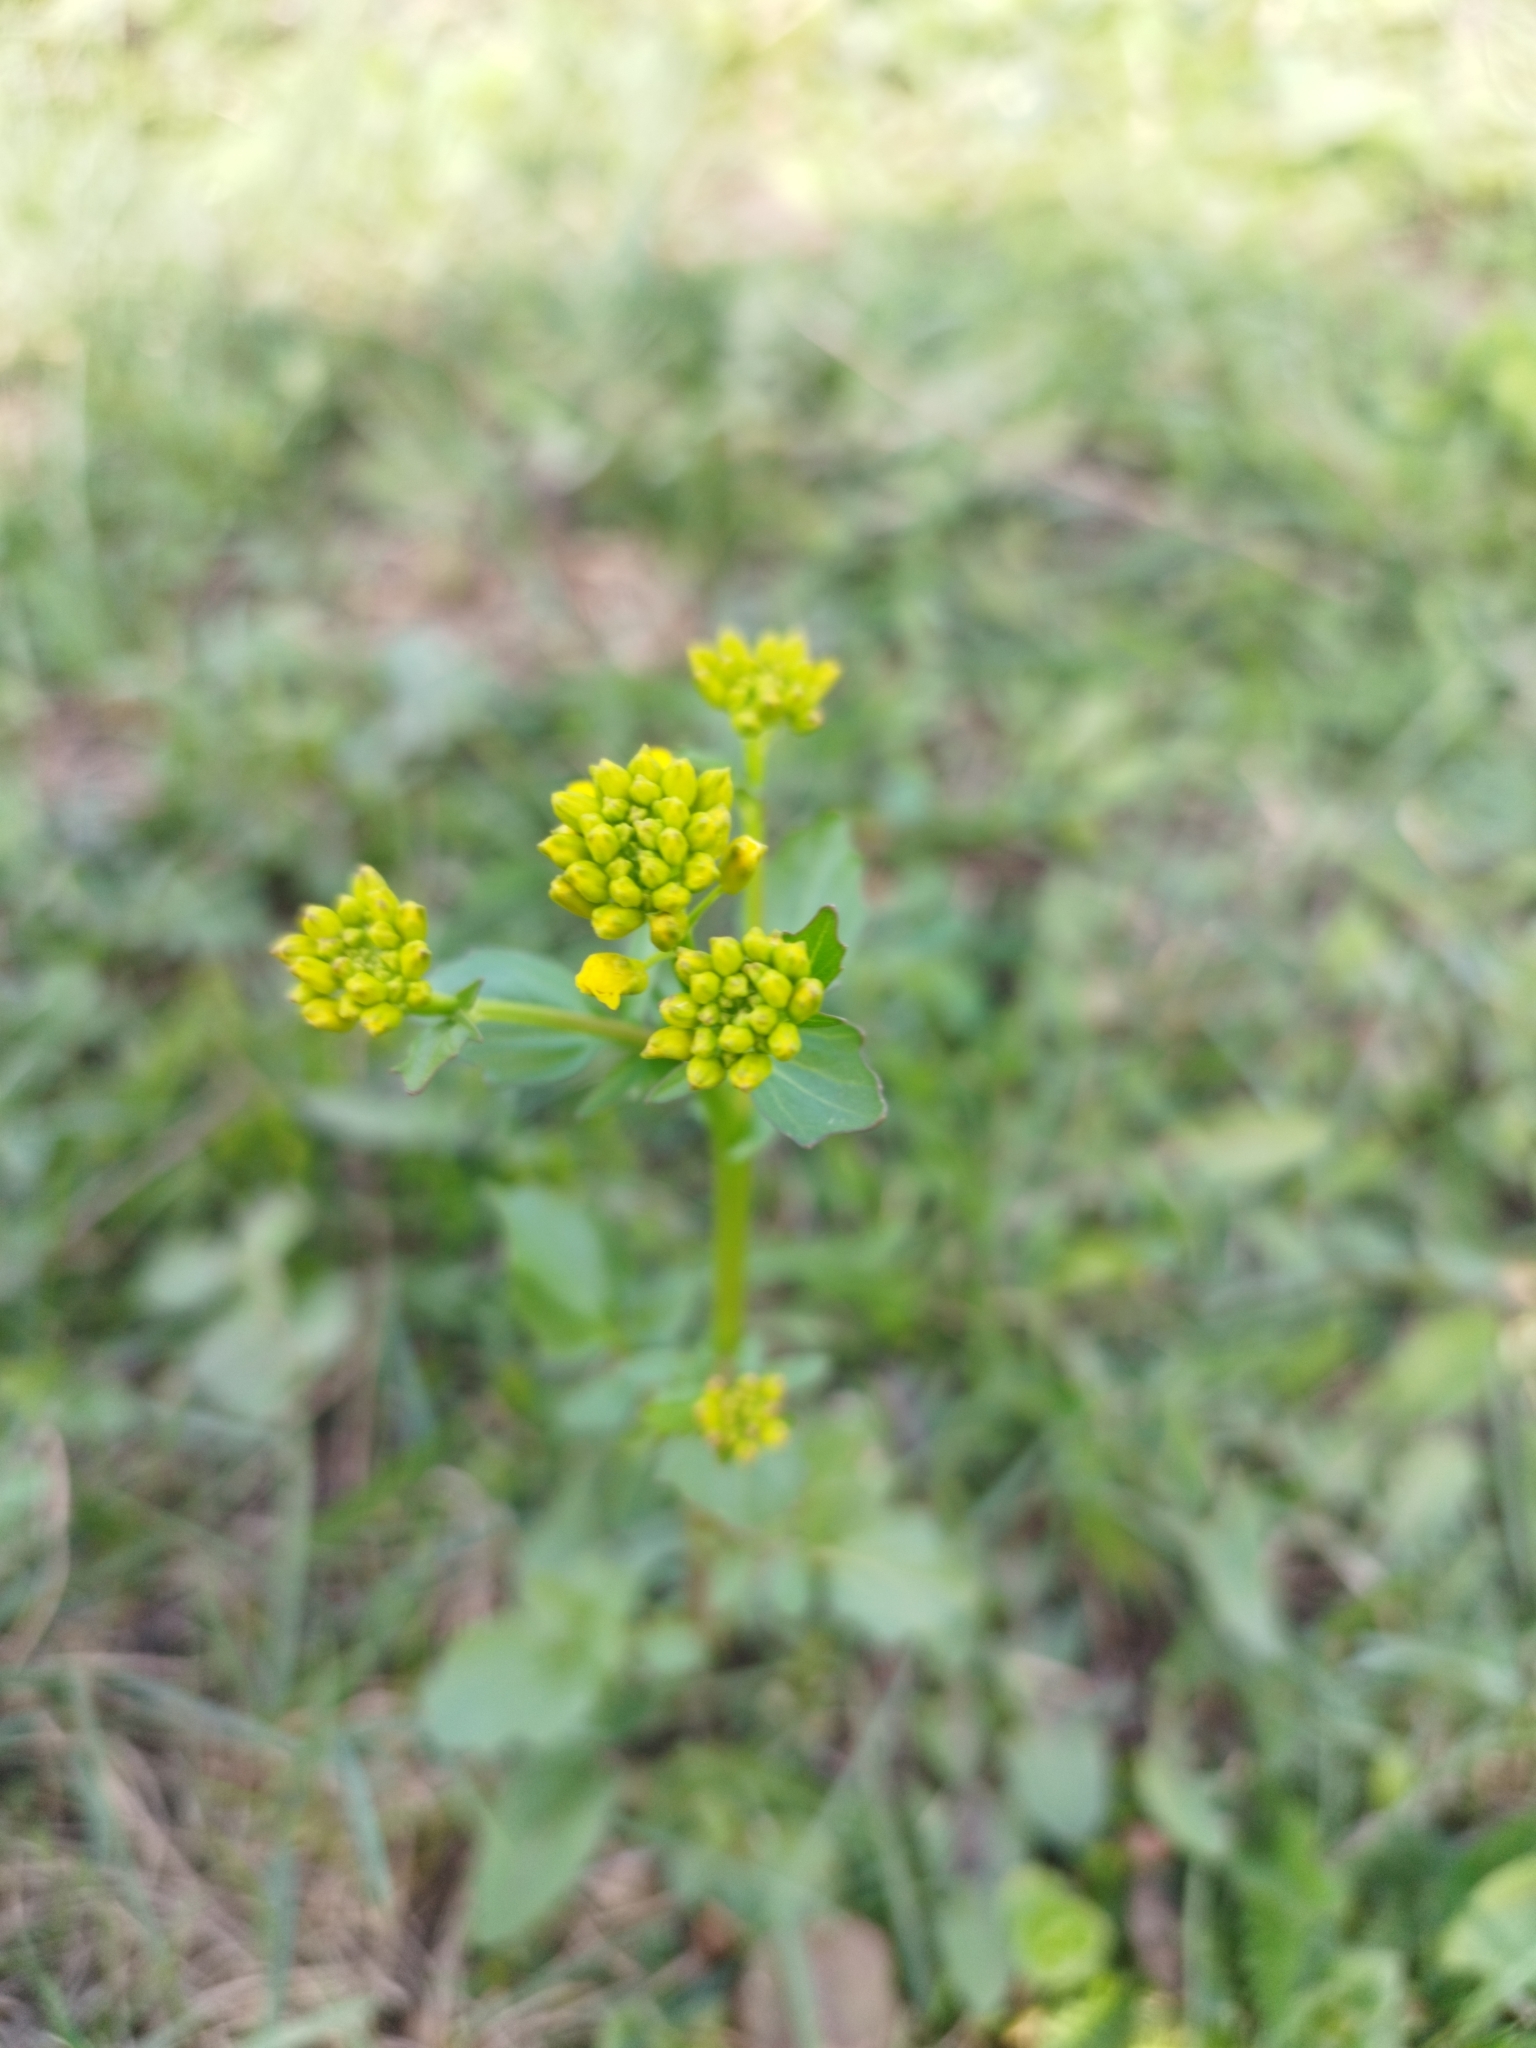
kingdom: Plantae
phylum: Tracheophyta
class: Magnoliopsida
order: Brassicales
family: Brassicaceae
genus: Barbarea
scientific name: Barbarea vulgaris
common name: Cressy-greens
